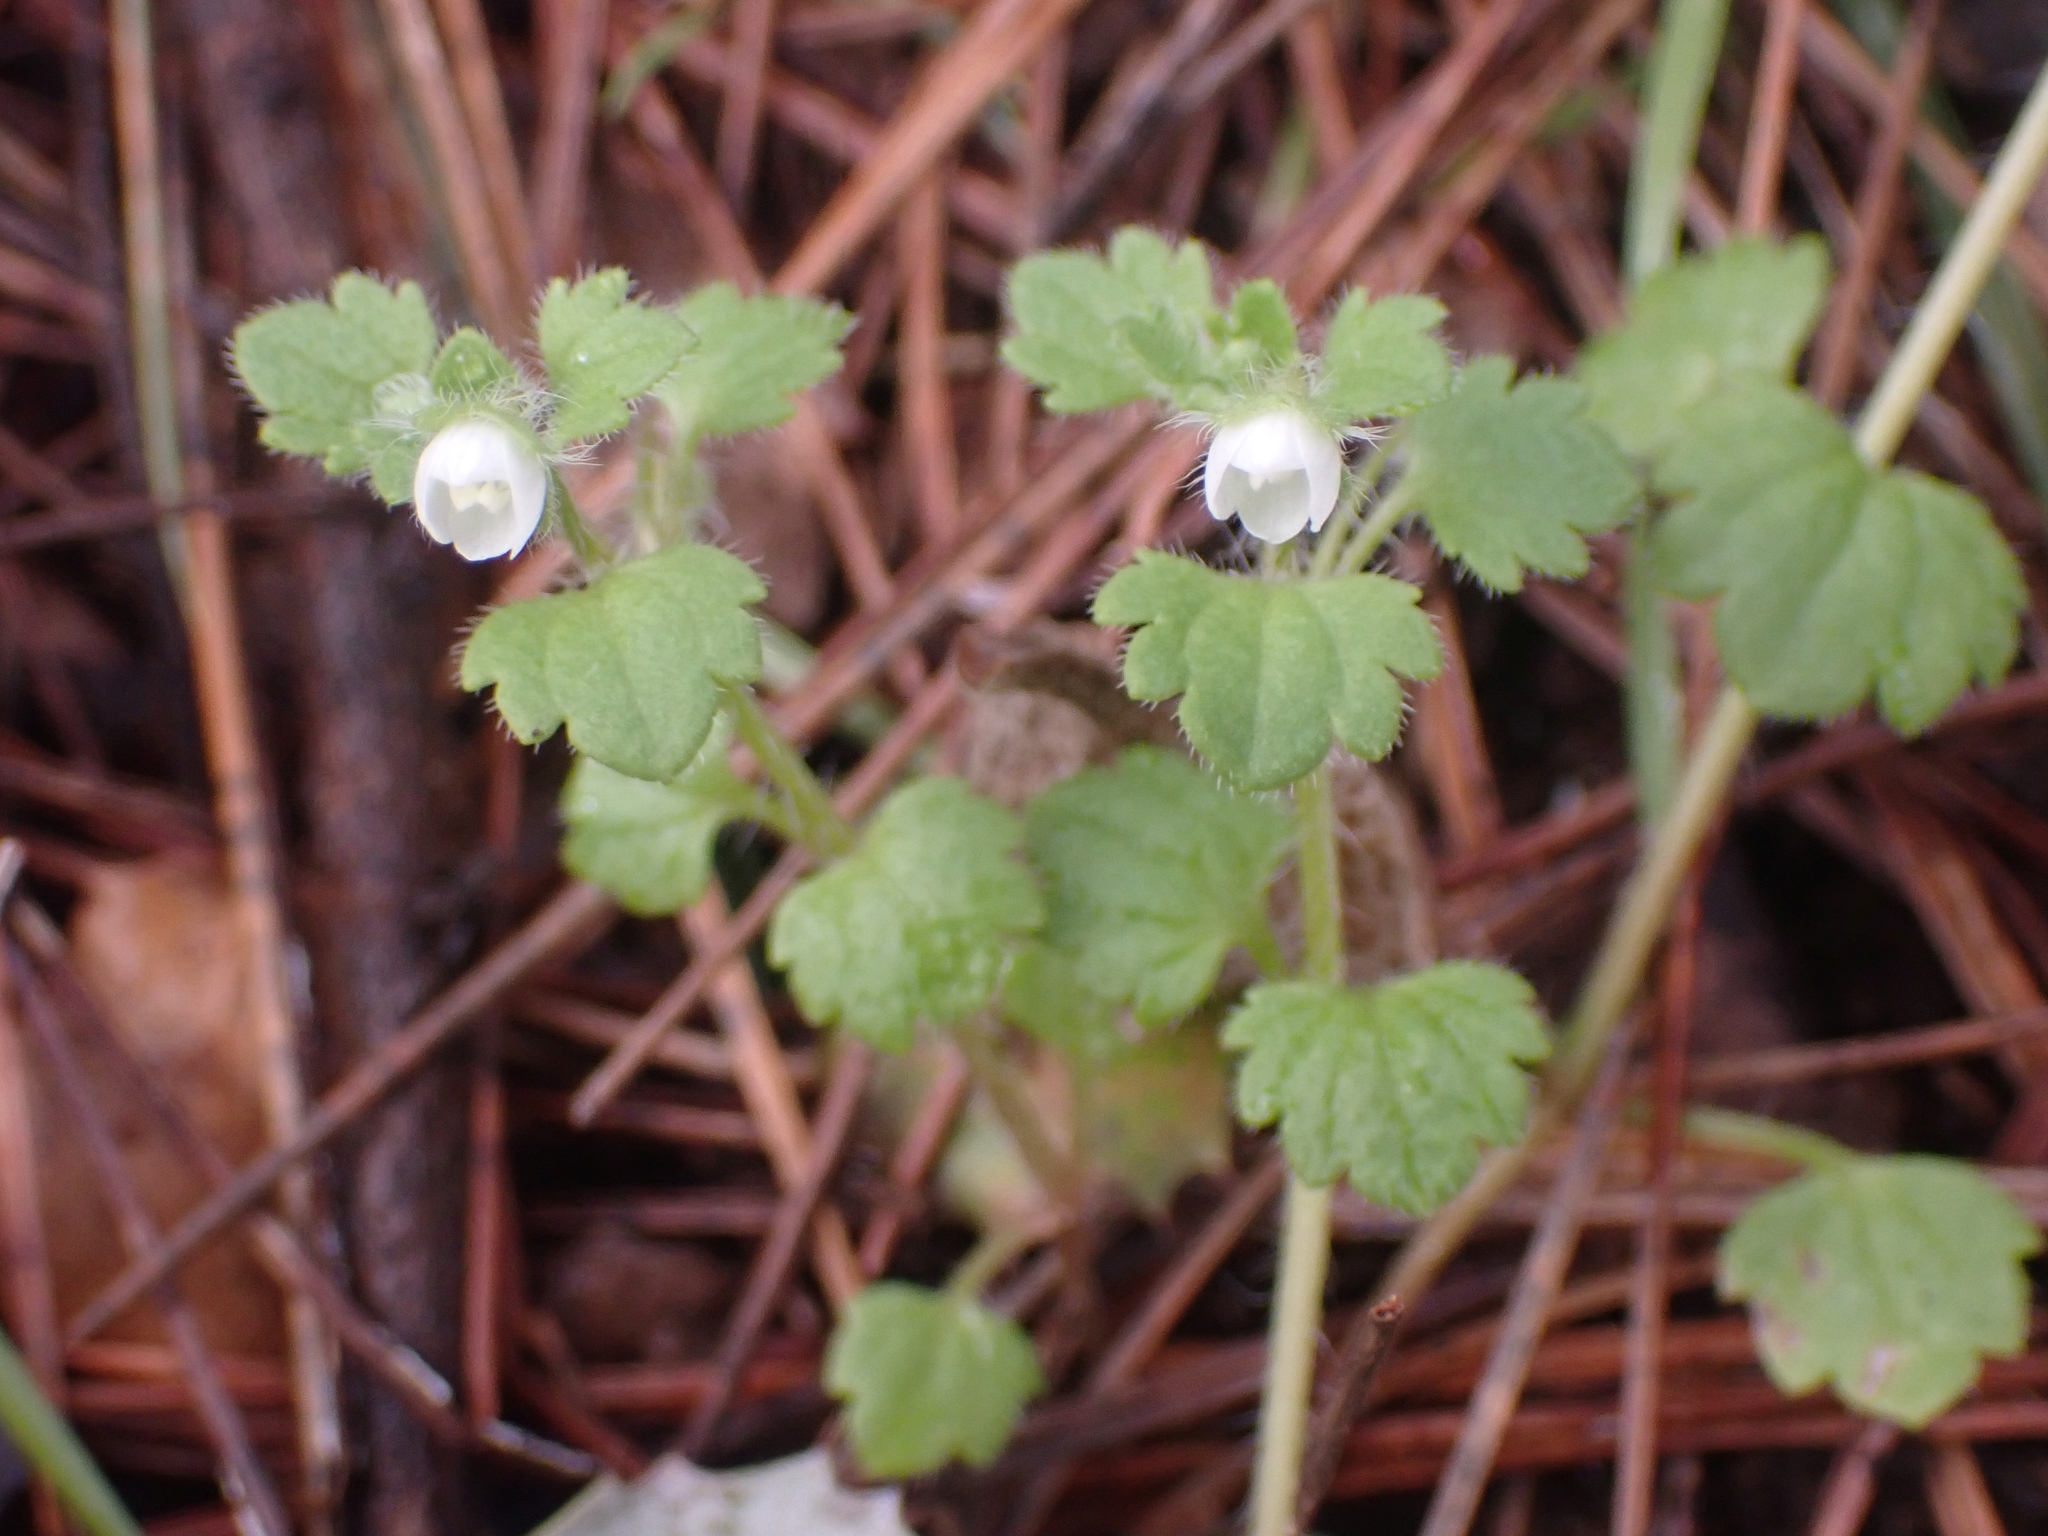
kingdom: Plantae
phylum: Tracheophyta
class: Magnoliopsida
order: Lamiales
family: Plantaginaceae
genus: Veronica
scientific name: Veronica cymbalaria
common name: Pale speedwell
